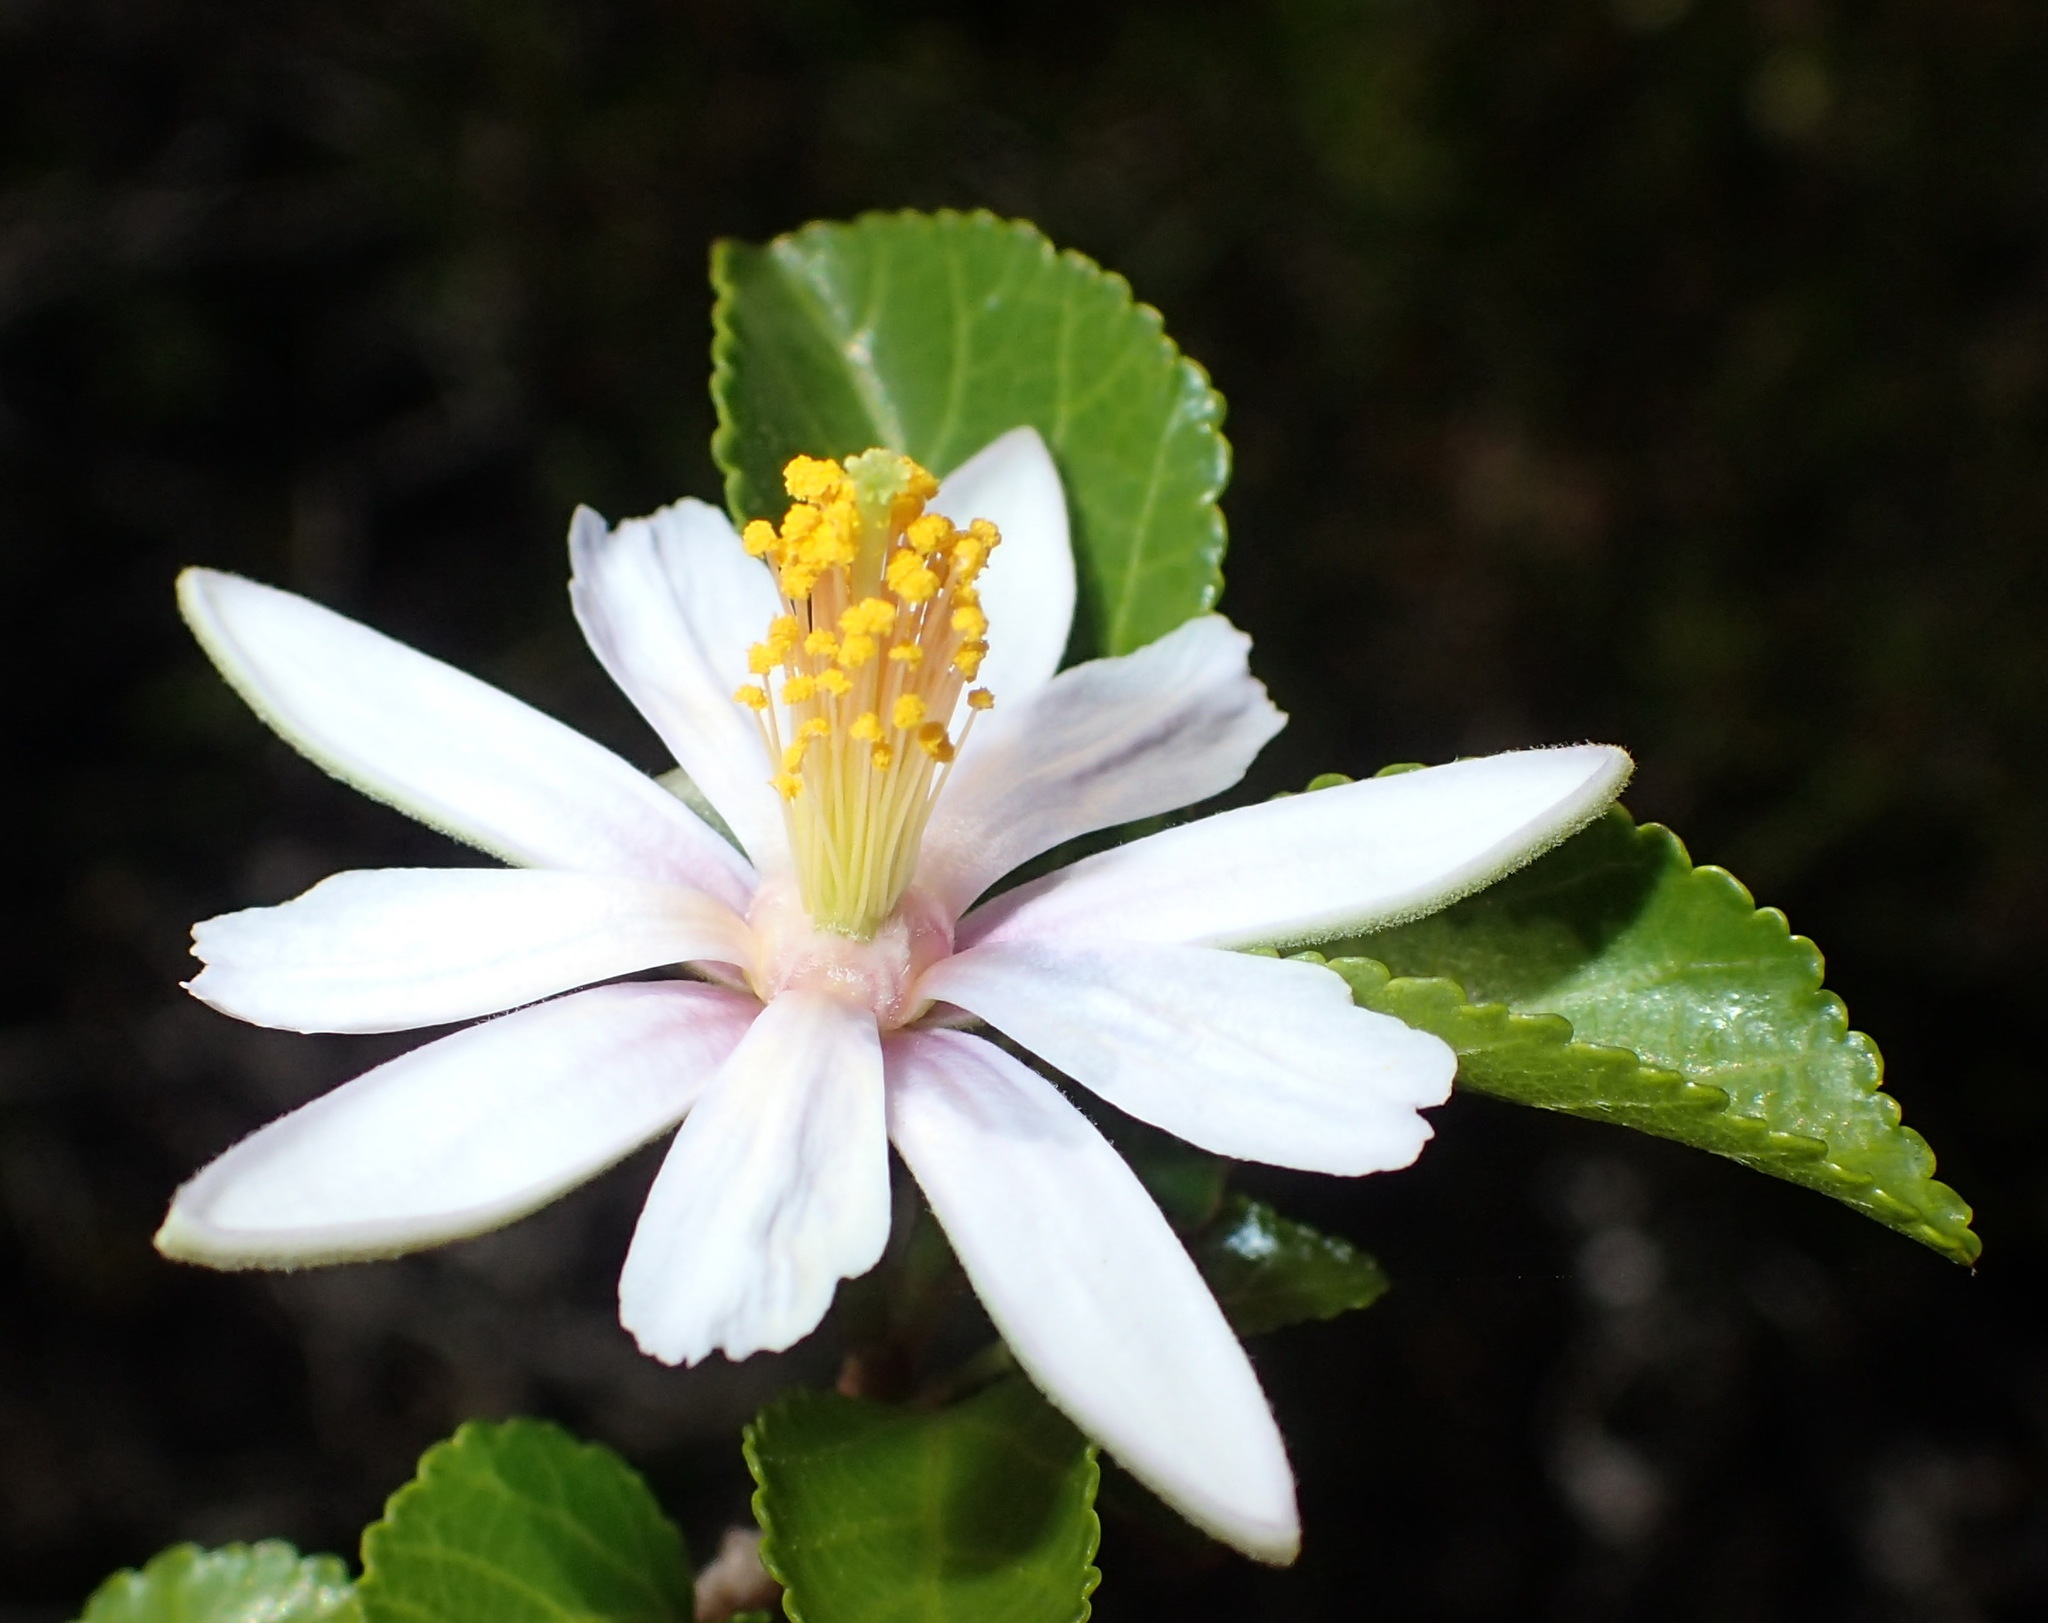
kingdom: Plantae
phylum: Tracheophyta
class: Magnoliopsida
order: Malvales
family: Malvaceae
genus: Grewia
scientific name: Grewia occidentalis
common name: Crossberry
